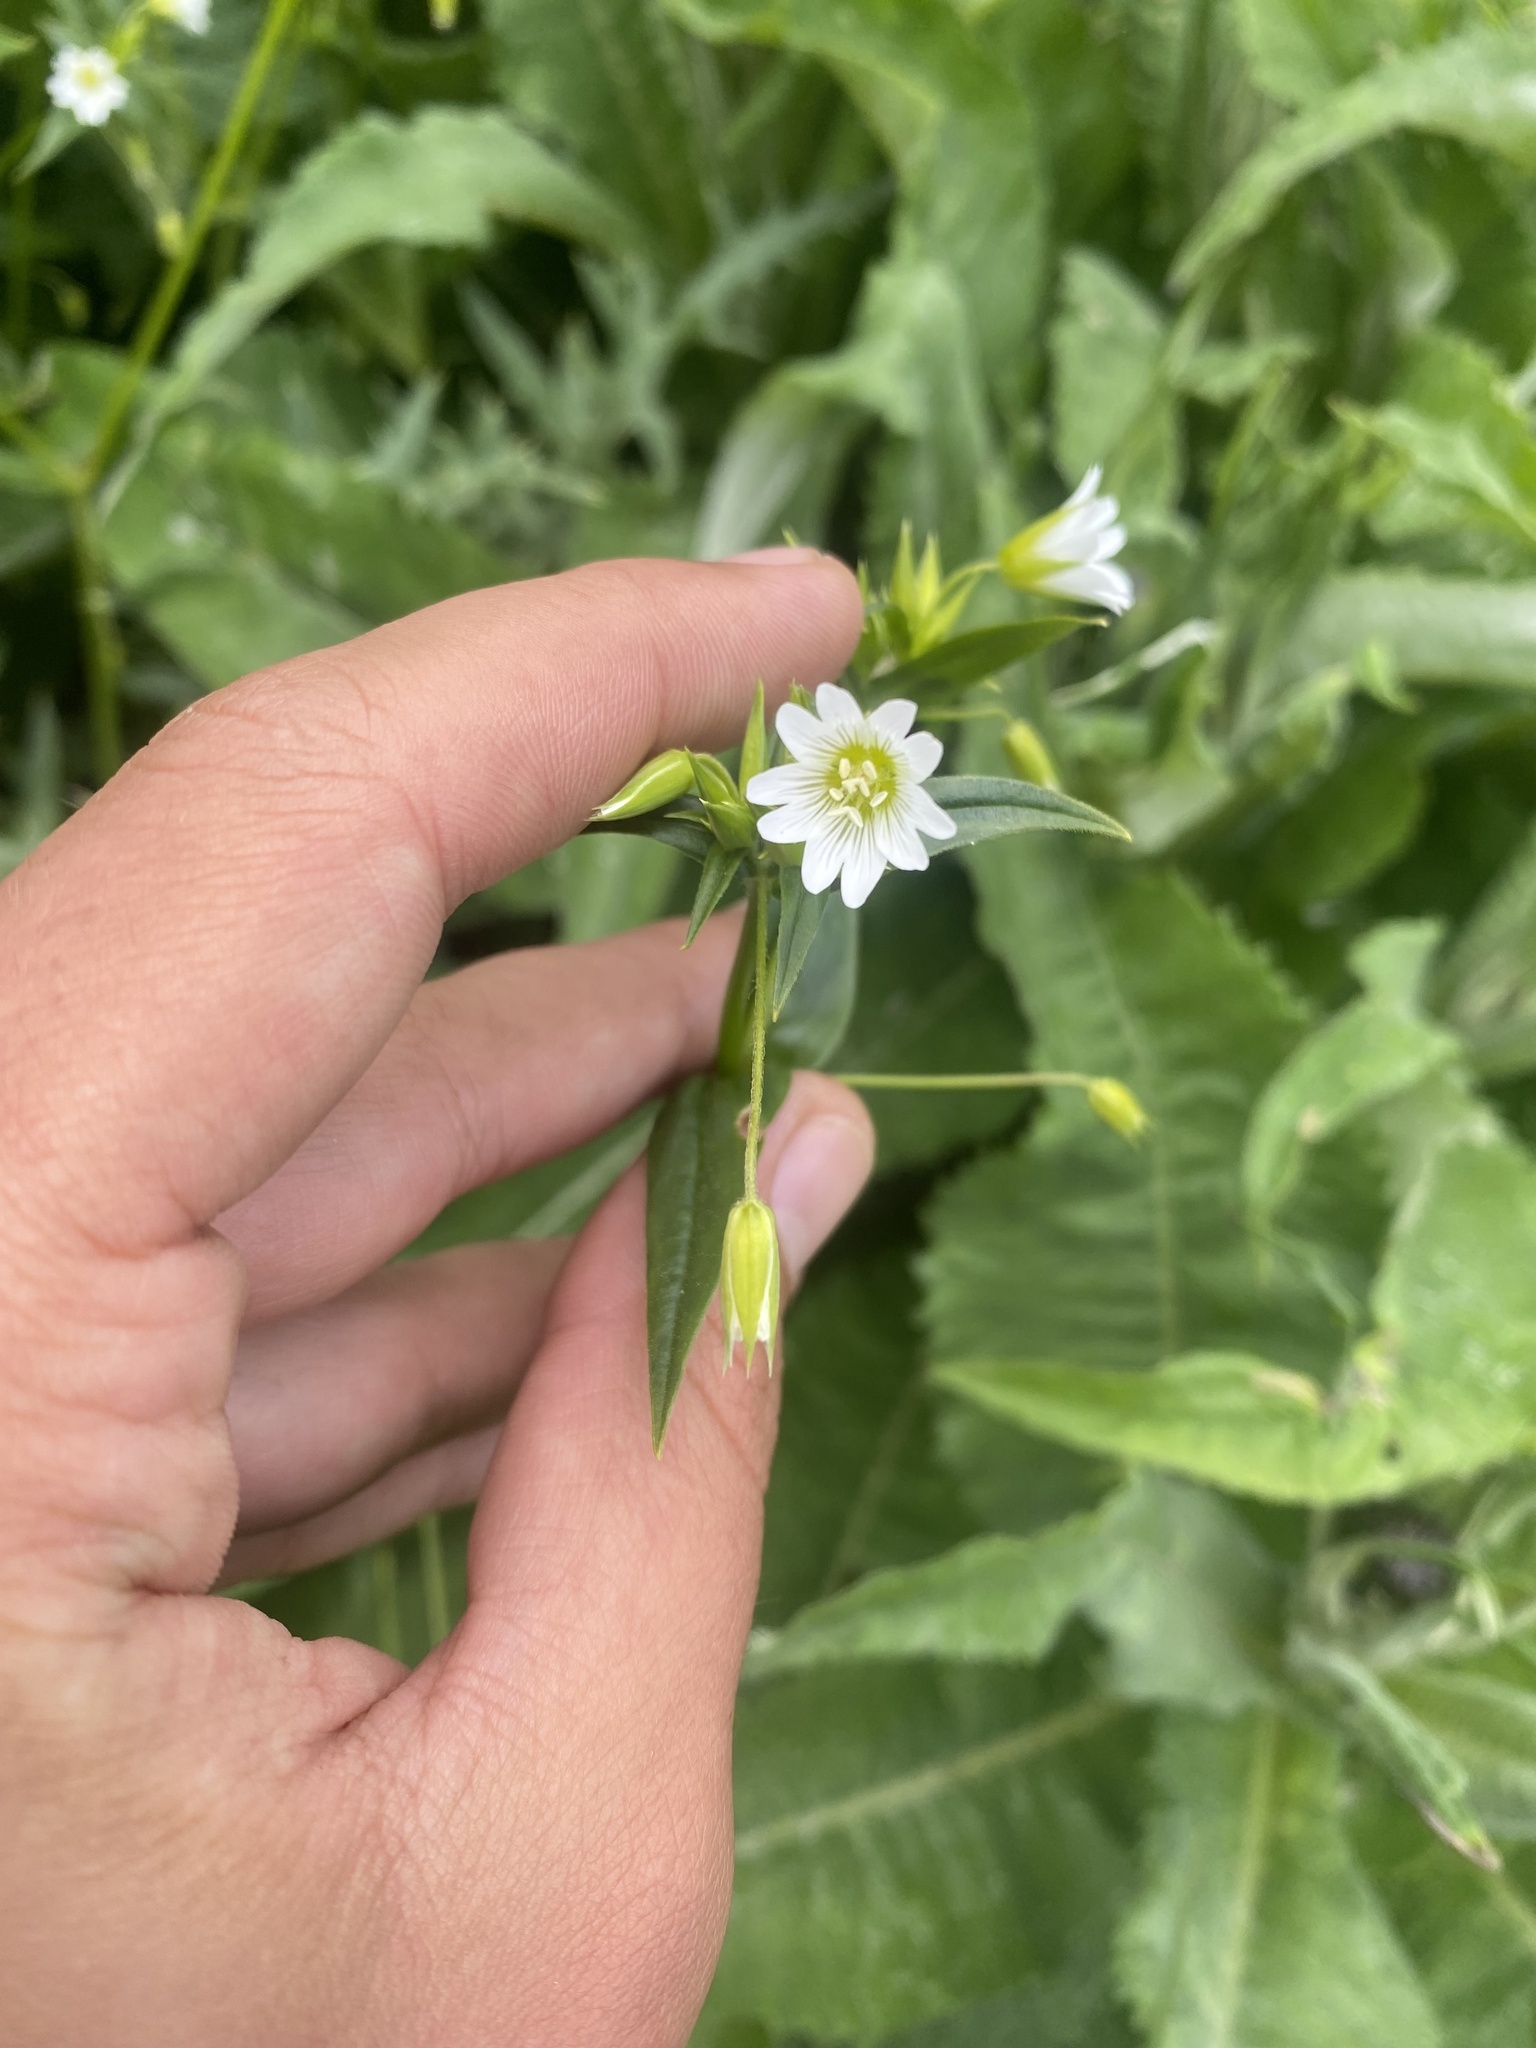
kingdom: Plantae
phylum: Tracheophyta
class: Magnoliopsida
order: Caryophyllales
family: Caryophyllaceae
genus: Cerastium
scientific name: Cerastium nemorale
